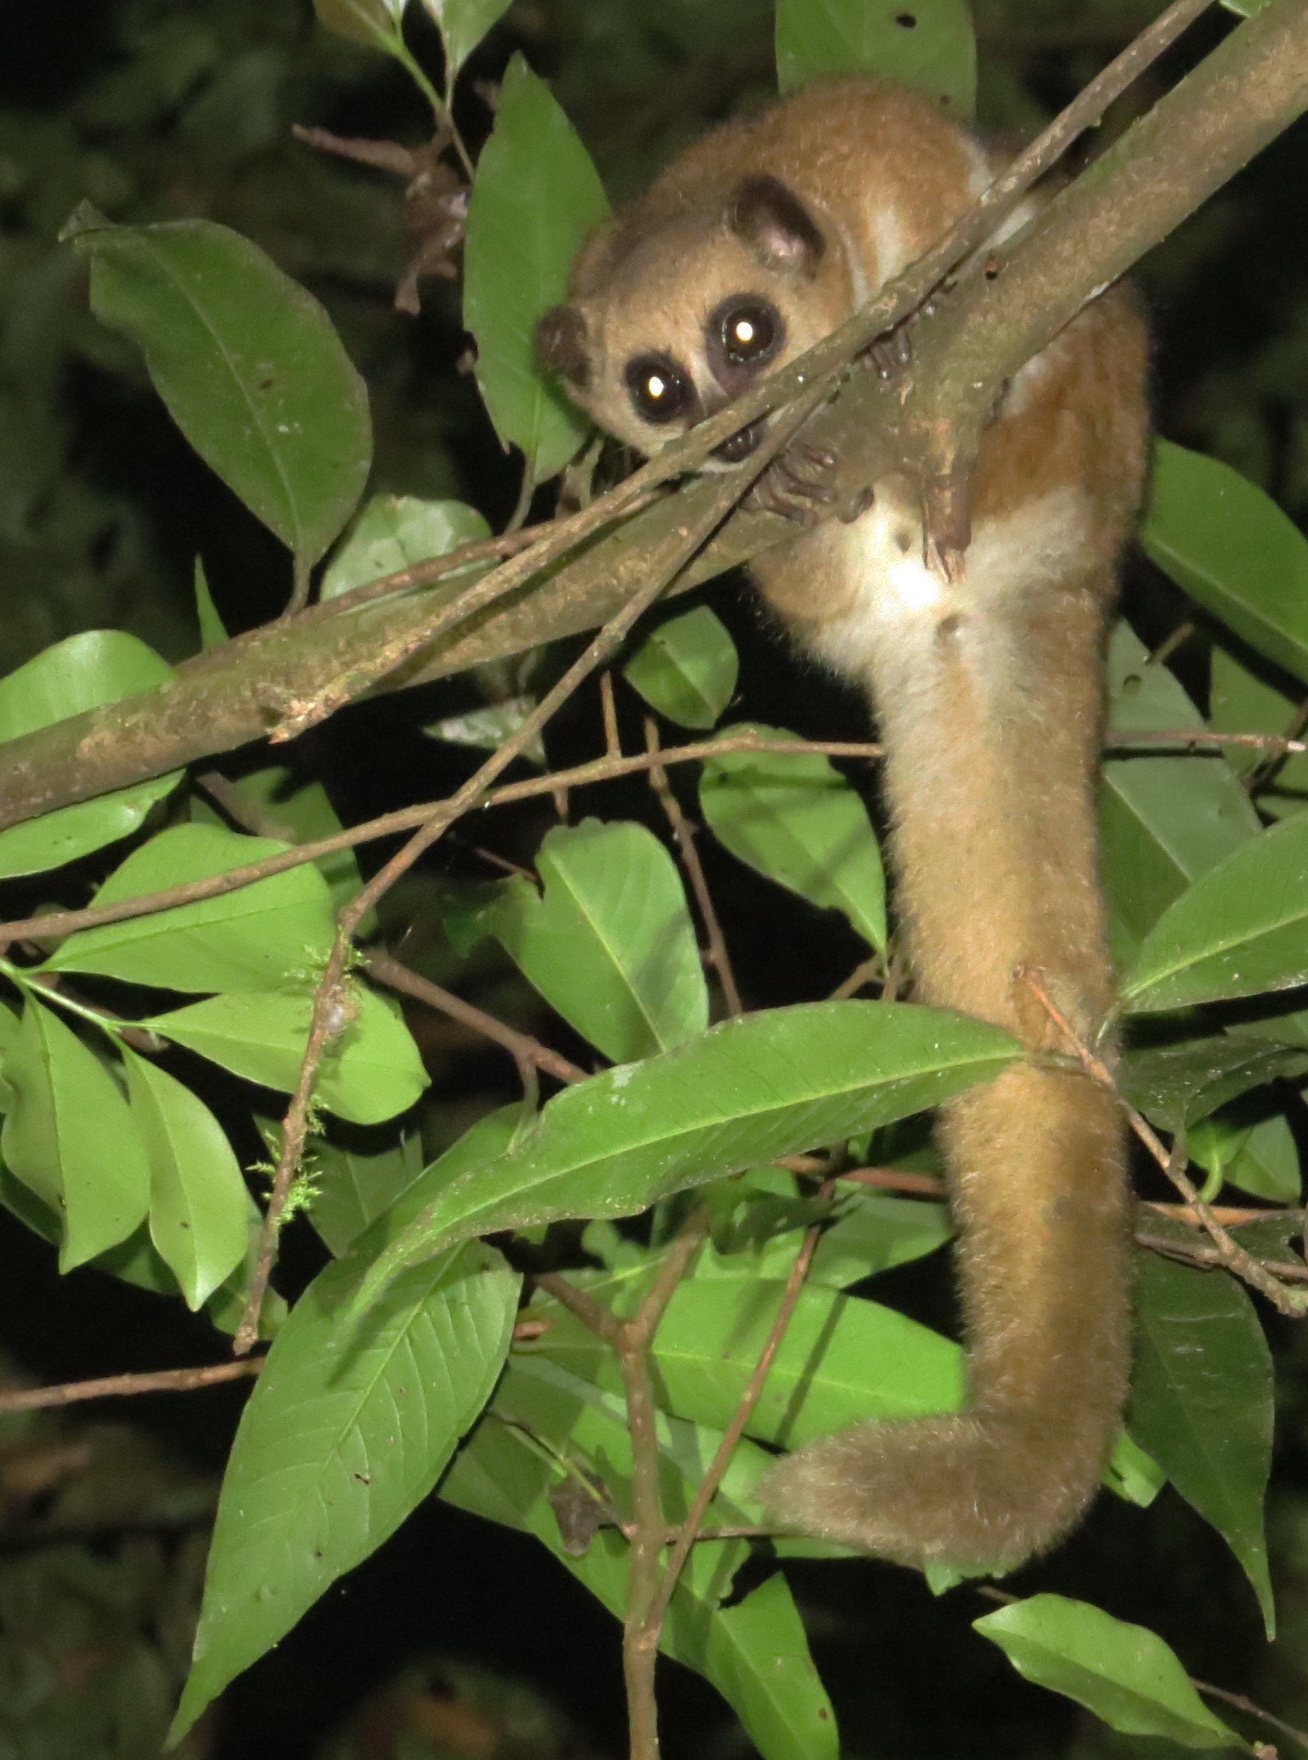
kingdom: Animalia
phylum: Chordata
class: Mammalia
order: Primates
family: Cheirogaleidae
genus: Cheirogaleus
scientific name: Cheirogaleus crossleyi
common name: Furry-eared dwarf lemur
